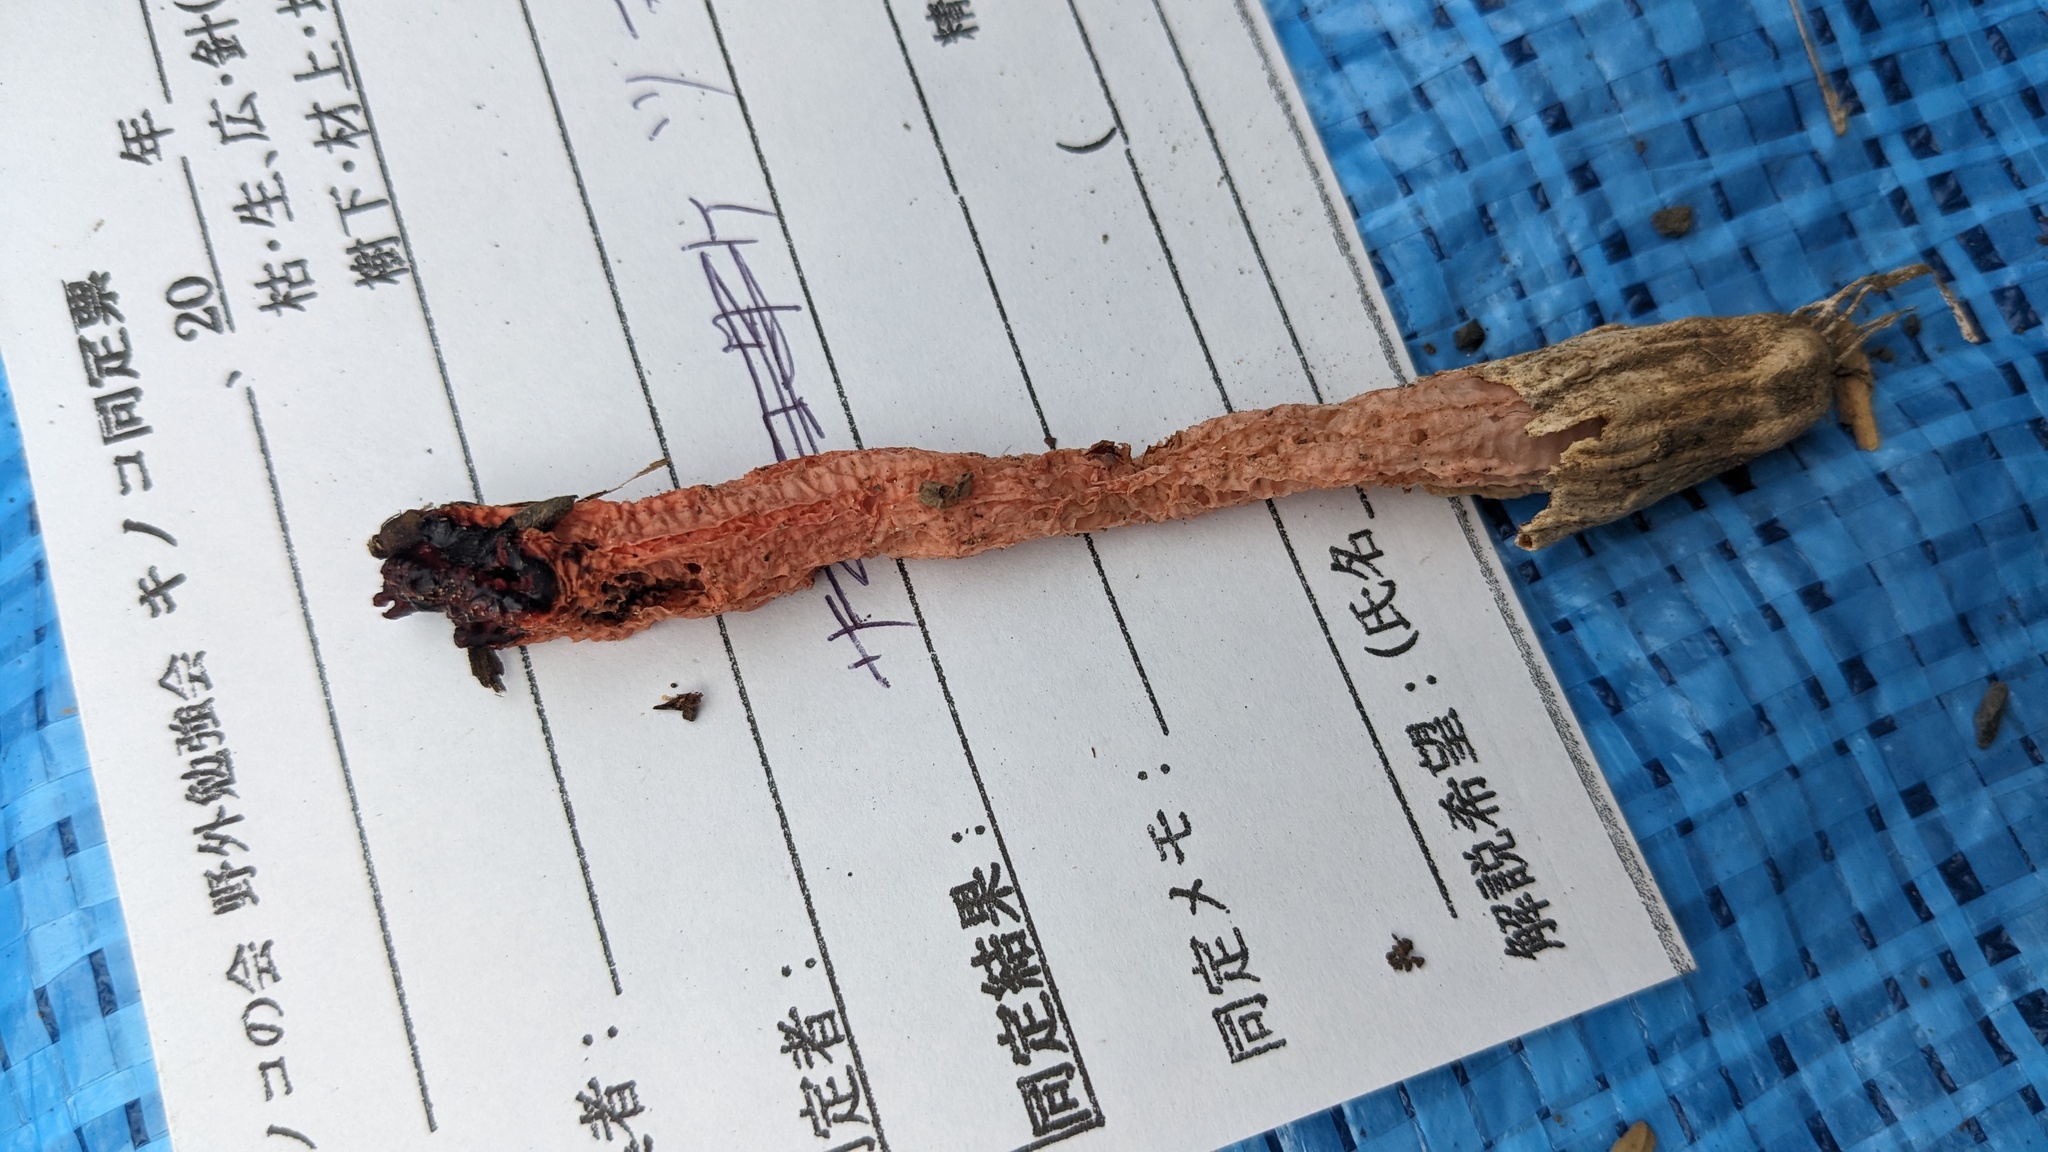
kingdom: Fungi
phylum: Basidiomycota
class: Agaricomycetes
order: Phallales
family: Phallaceae
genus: Lysurus
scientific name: Lysurus mokusin
